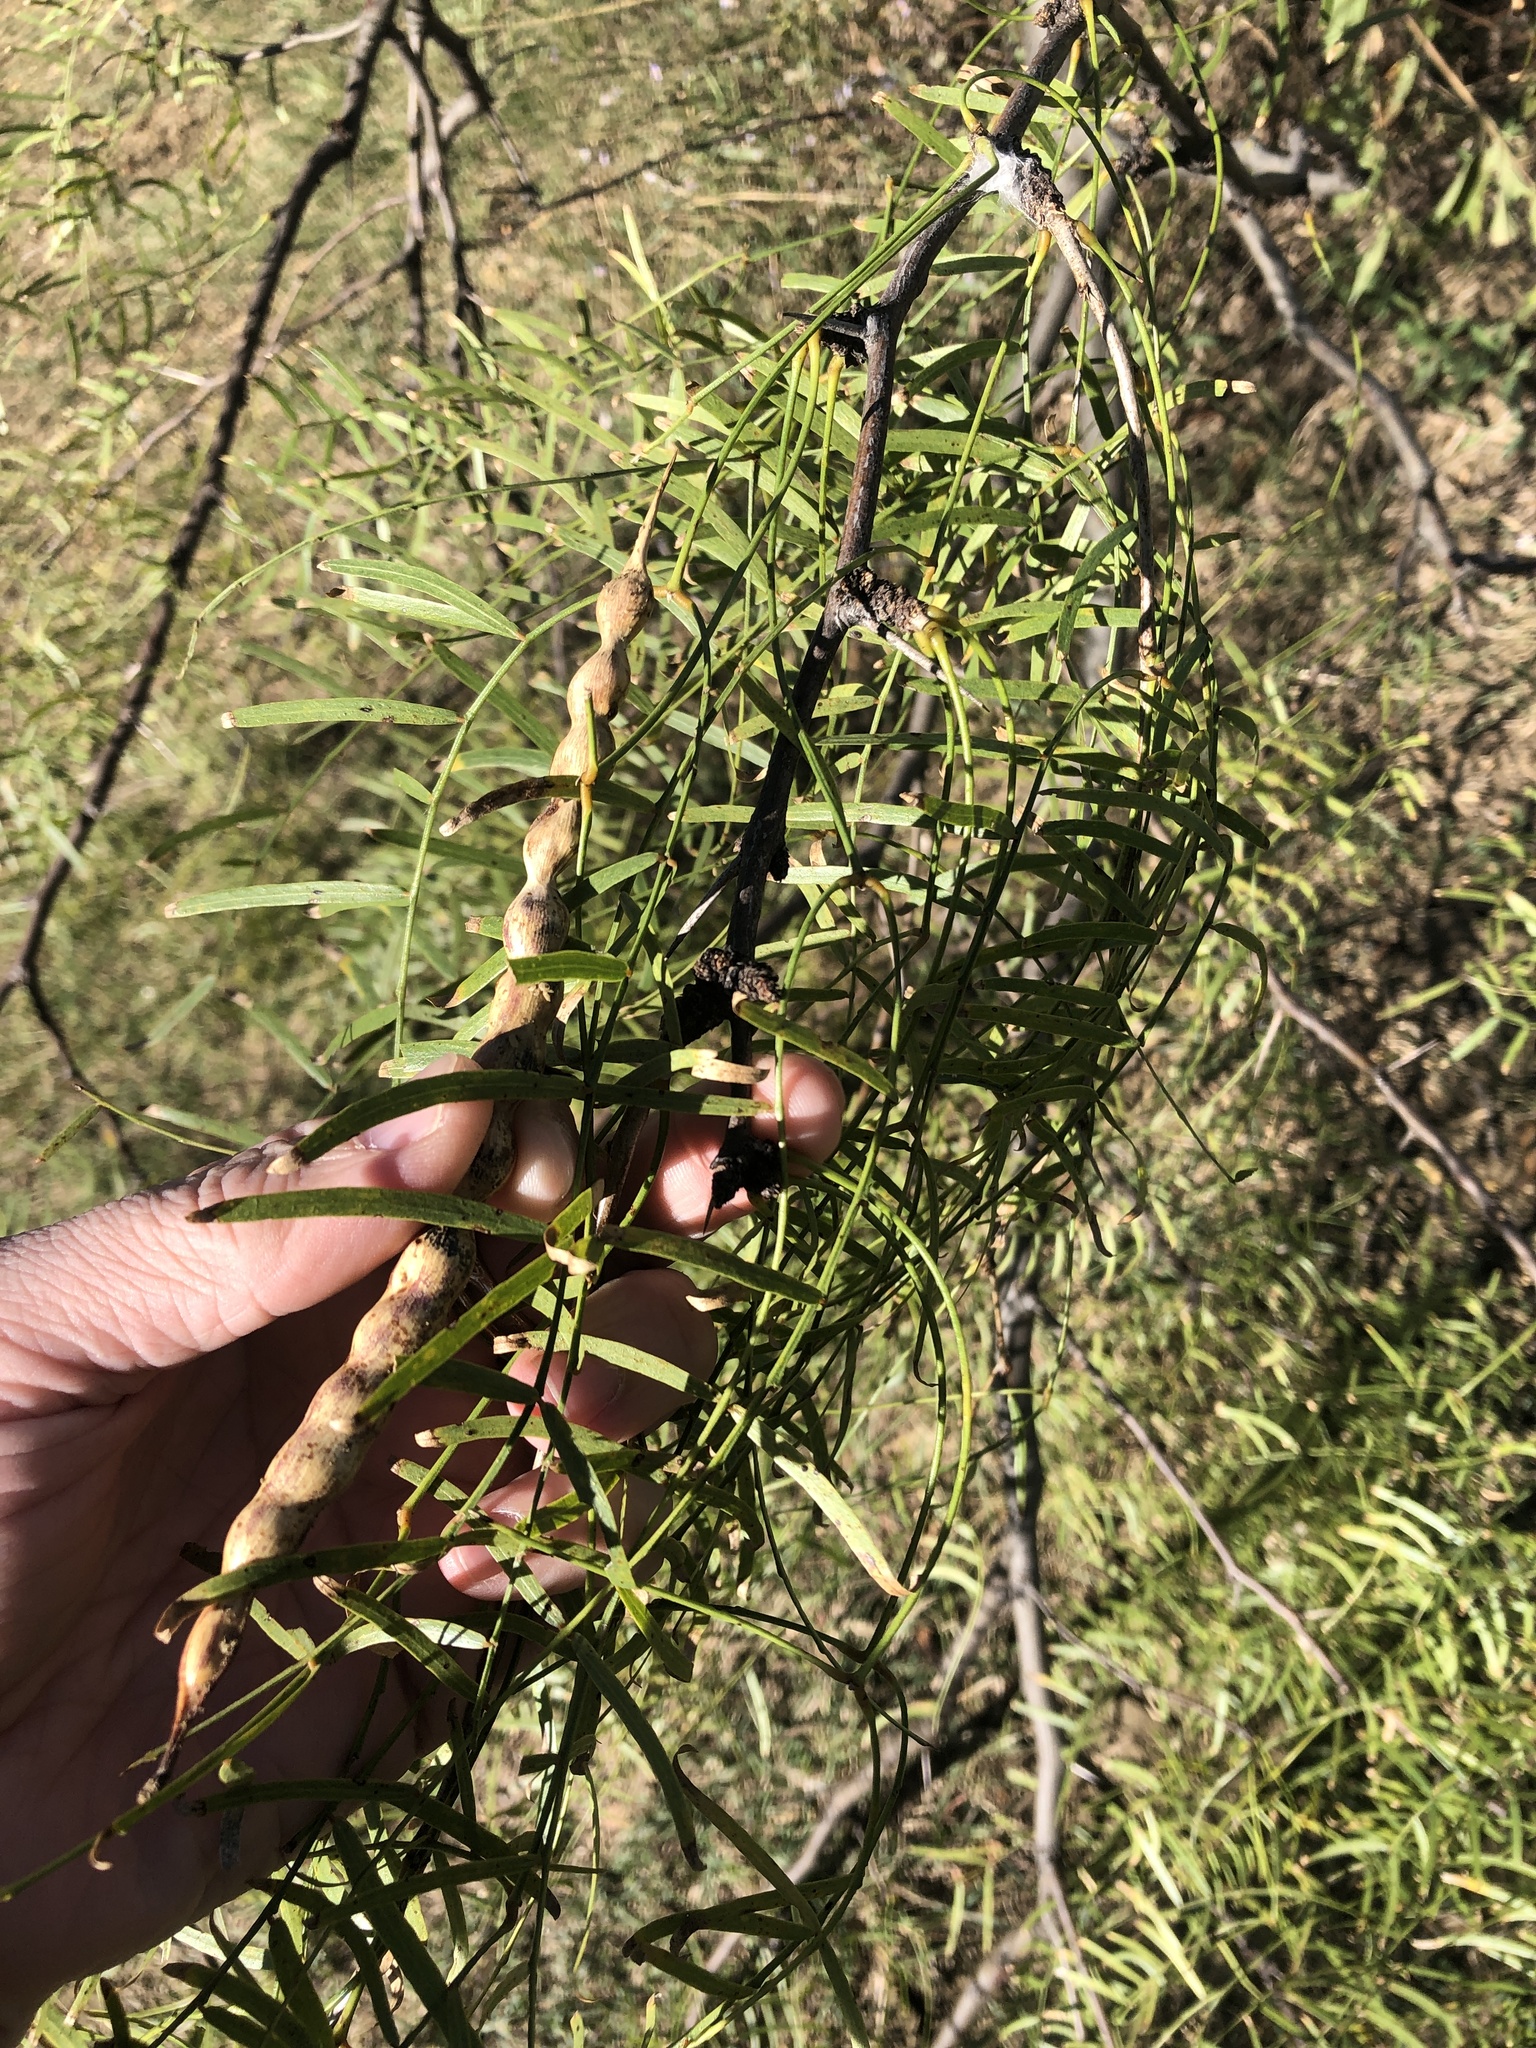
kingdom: Plantae
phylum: Tracheophyta
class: Magnoliopsida
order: Fabales
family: Fabaceae
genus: Prosopis
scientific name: Prosopis glandulosa
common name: Honey mesquite
